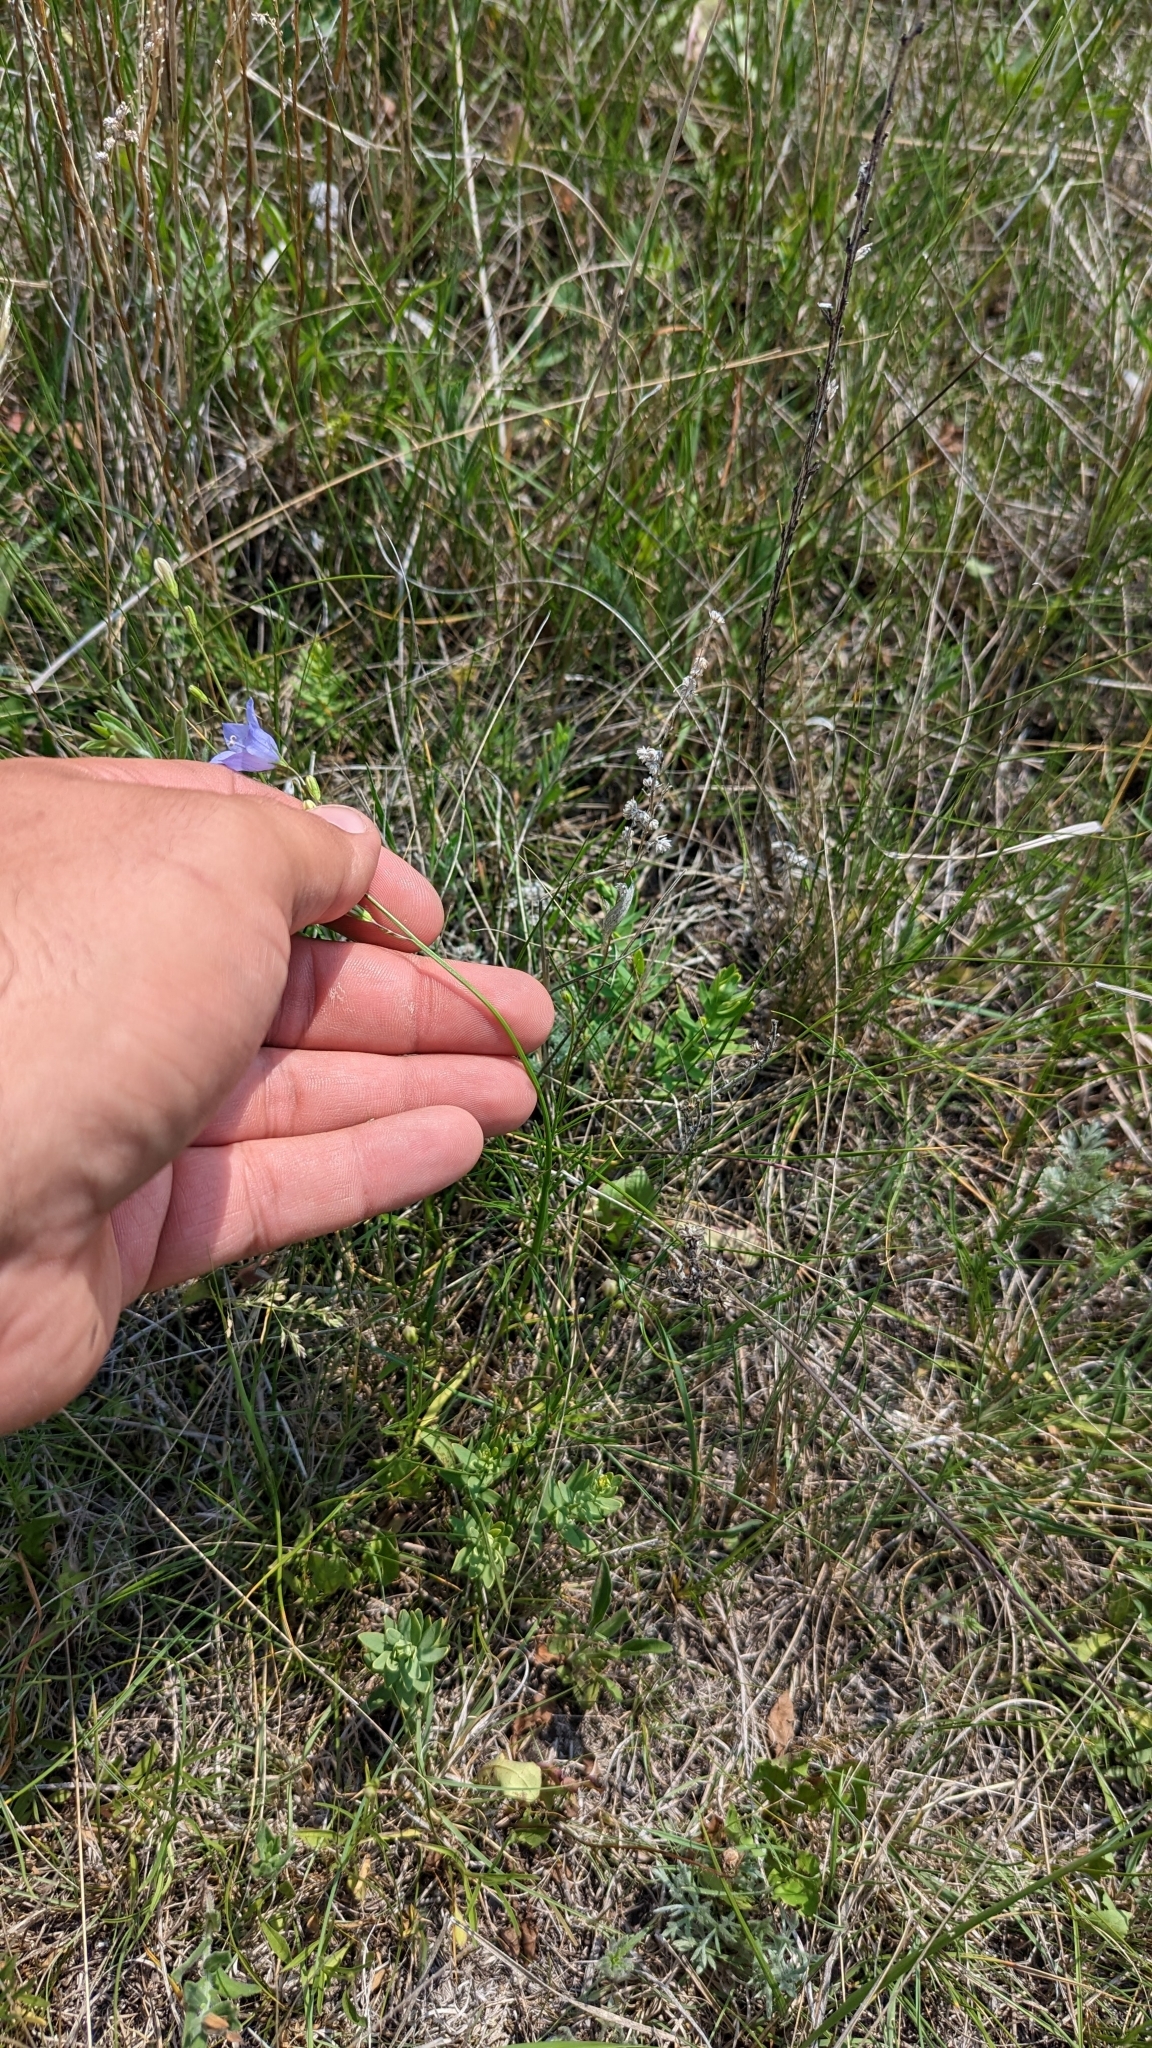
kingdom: Plantae
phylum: Tracheophyta
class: Magnoliopsida
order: Asterales
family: Campanulaceae
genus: Campanula
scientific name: Campanula petiolata
